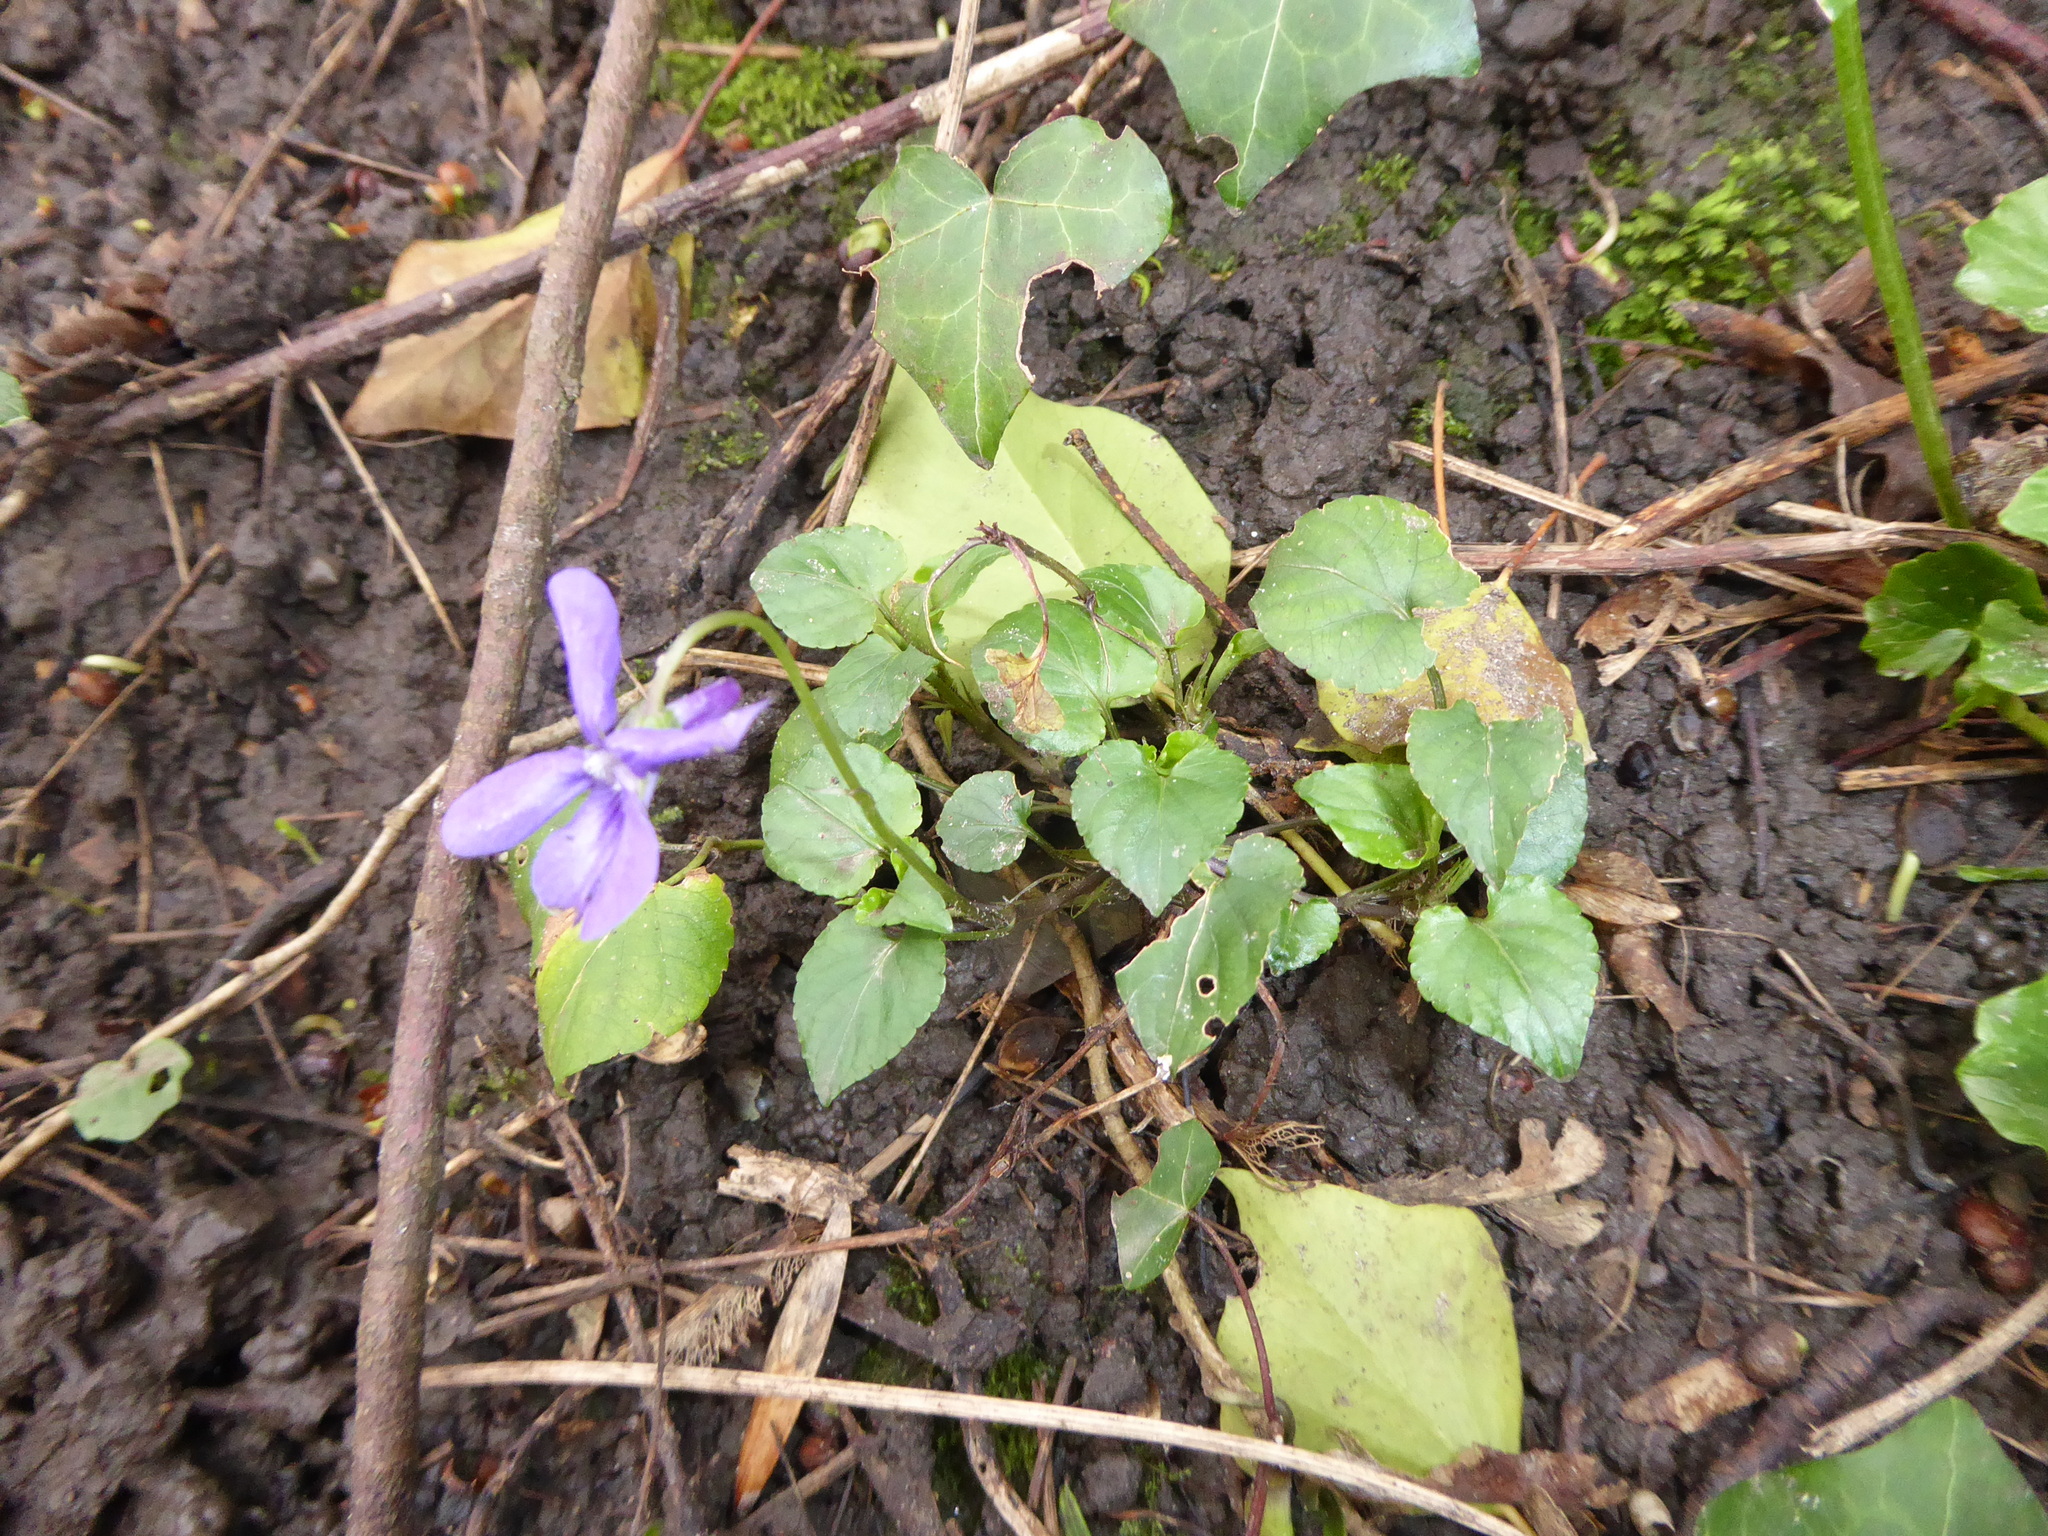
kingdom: Plantae
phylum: Tracheophyta
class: Magnoliopsida
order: Malpighiales
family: Violaceae
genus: Viola
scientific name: Viola reichenbachiana
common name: Early dog-violet
